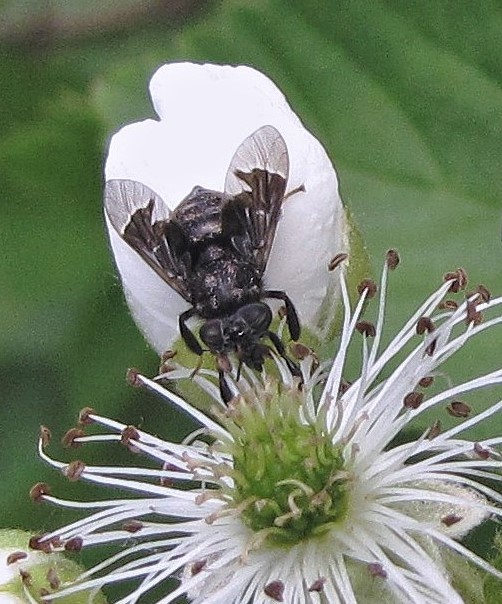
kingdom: Animalia
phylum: Arthropoda
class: Insecta
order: Diptera
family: Tabanidae
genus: Lepiselaga
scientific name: Lepiselaga albitarsis
